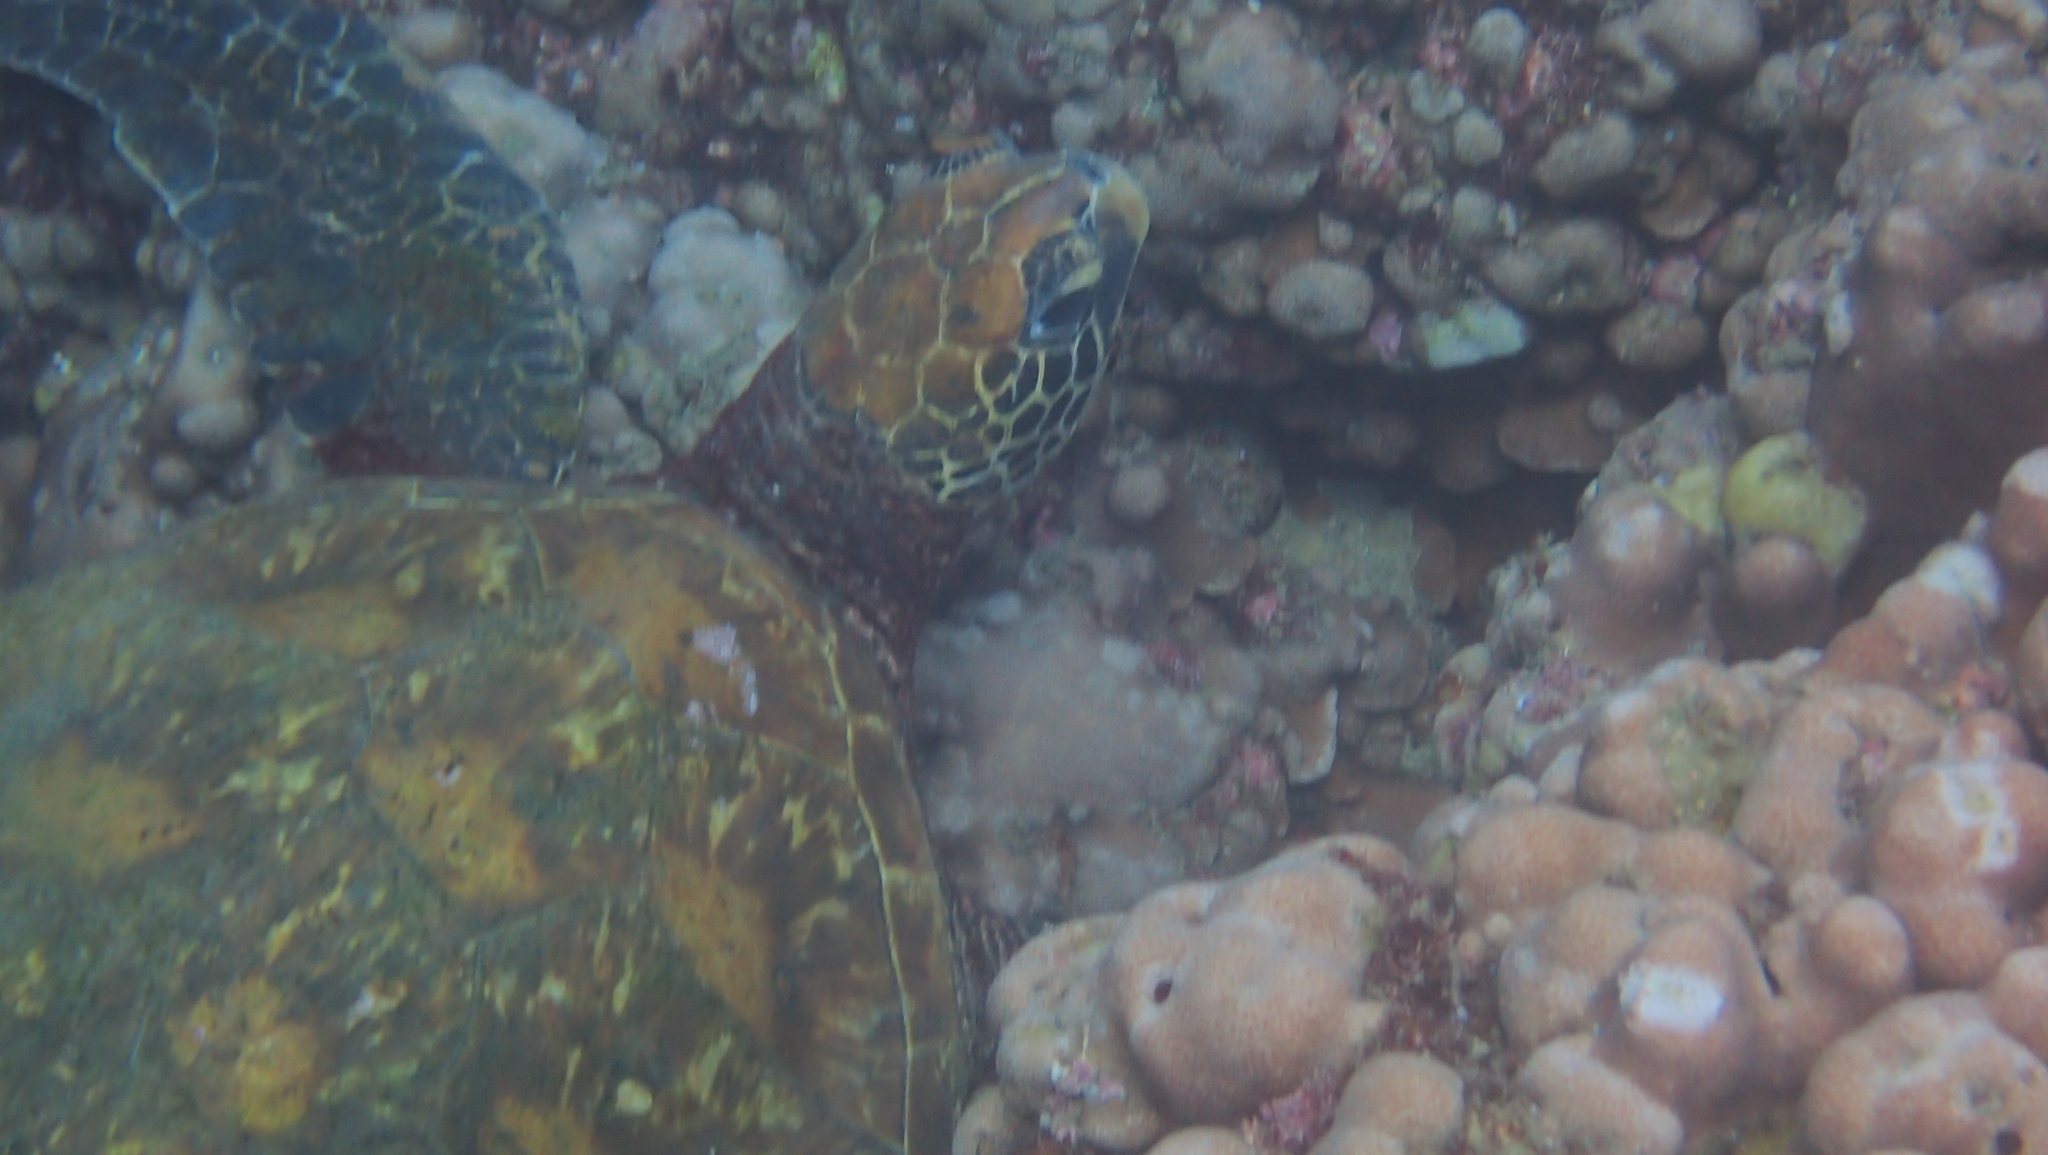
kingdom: Animalia
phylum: Chordata
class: Testudines
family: Cheloniidae
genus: Chelonia
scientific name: Chelonia mydas
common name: Green turtle
